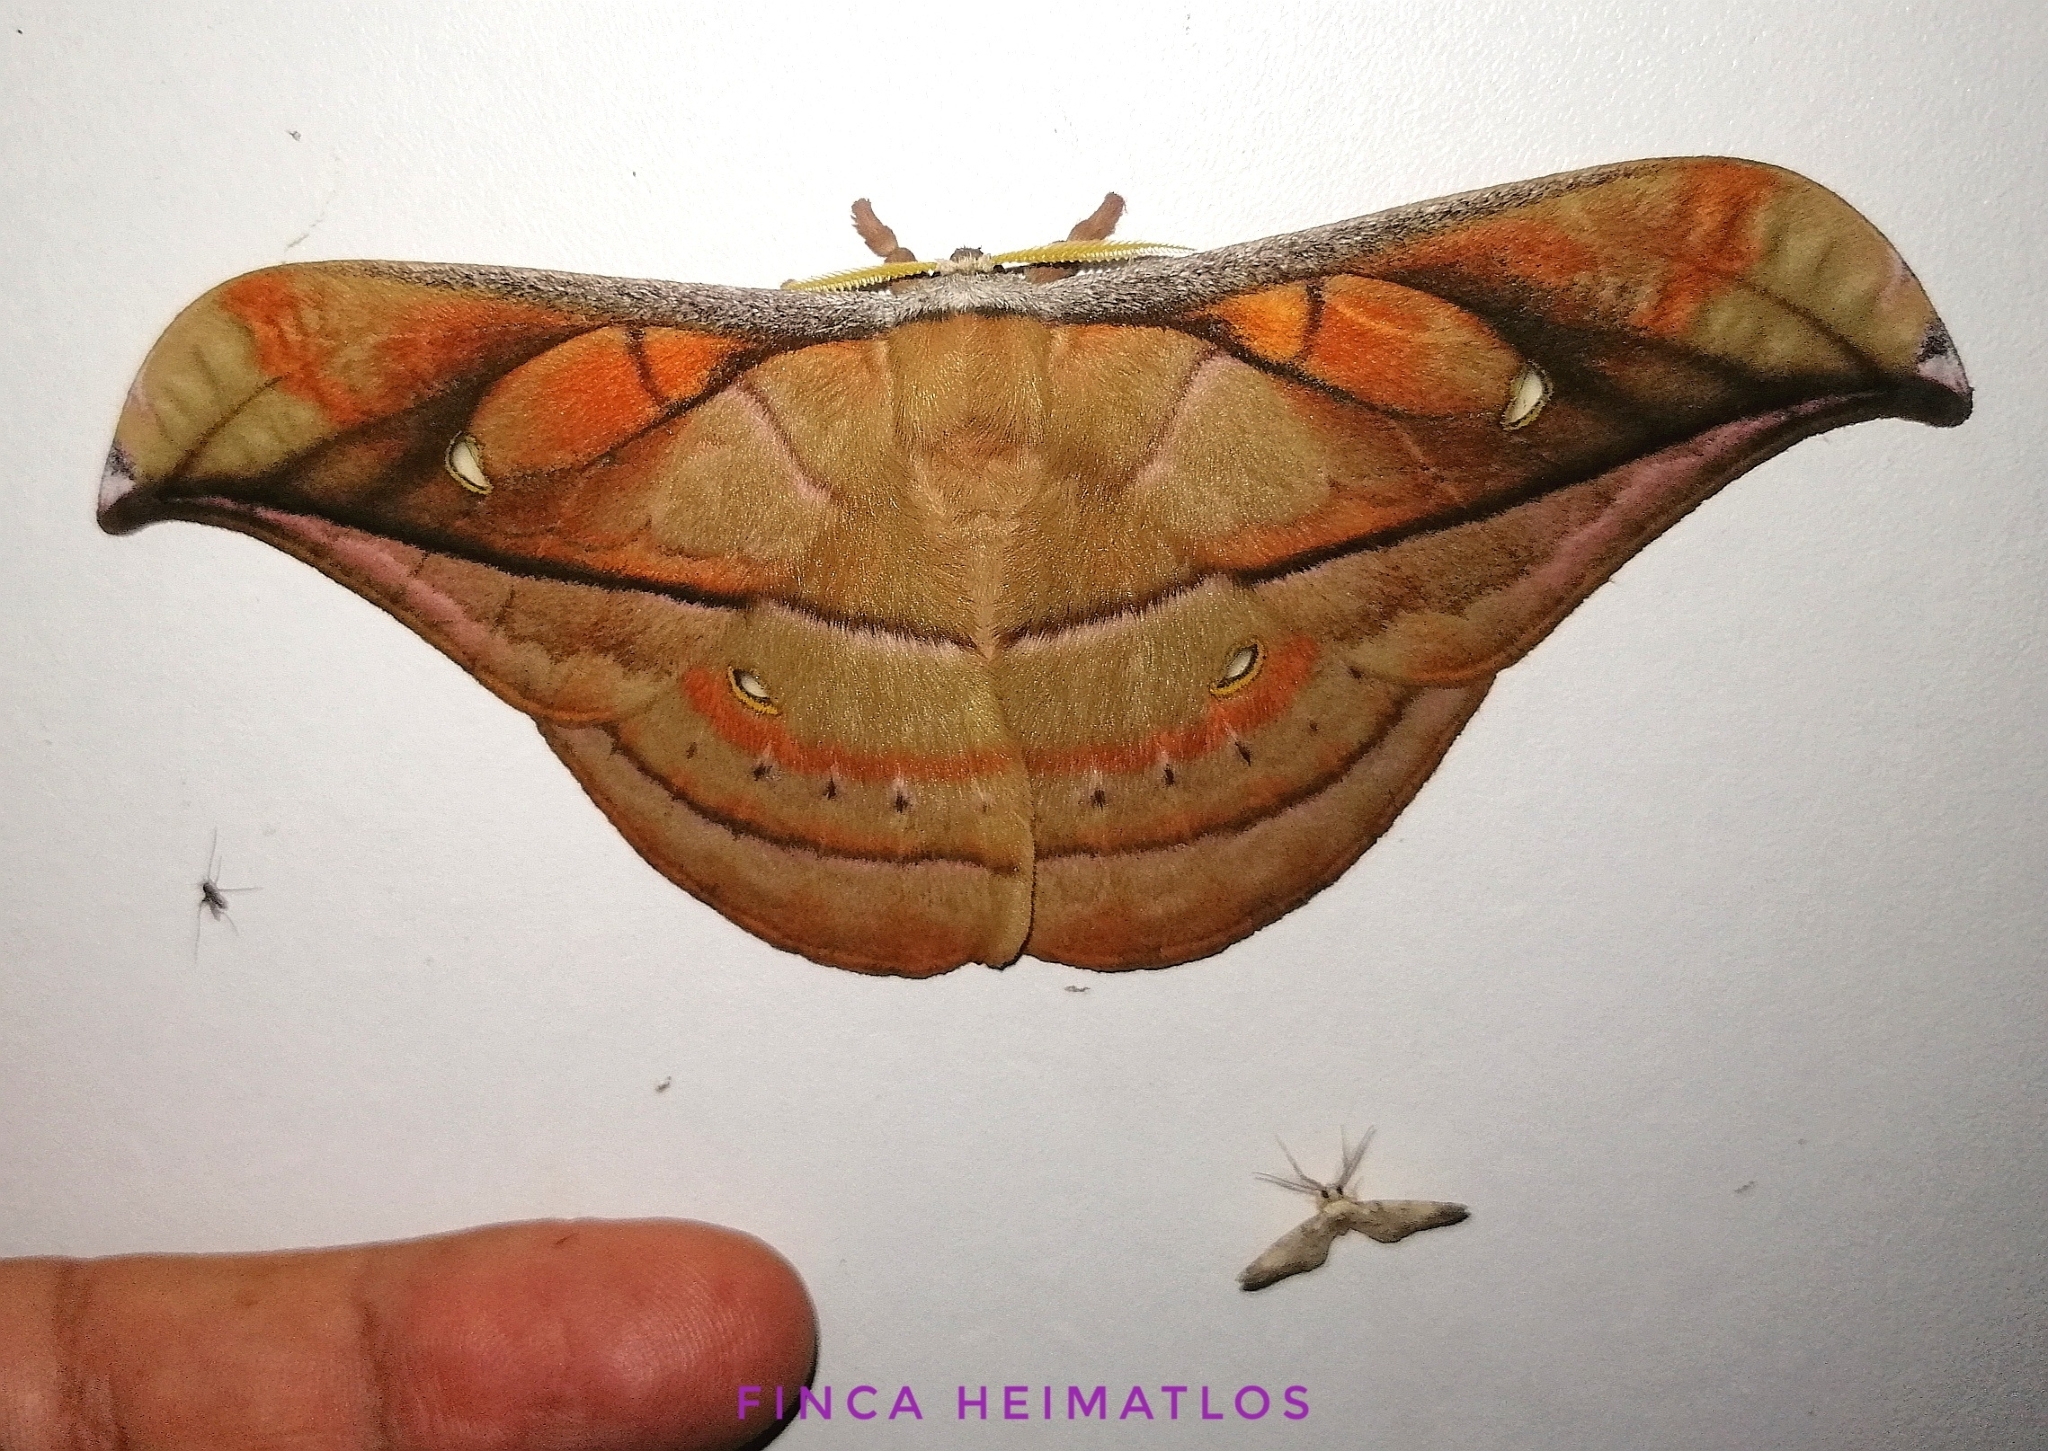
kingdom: Animalia
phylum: Arthropoda
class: Insecta
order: Lepidoptera
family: Saturniidae
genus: Copaxa
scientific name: Copaxa decrescens
